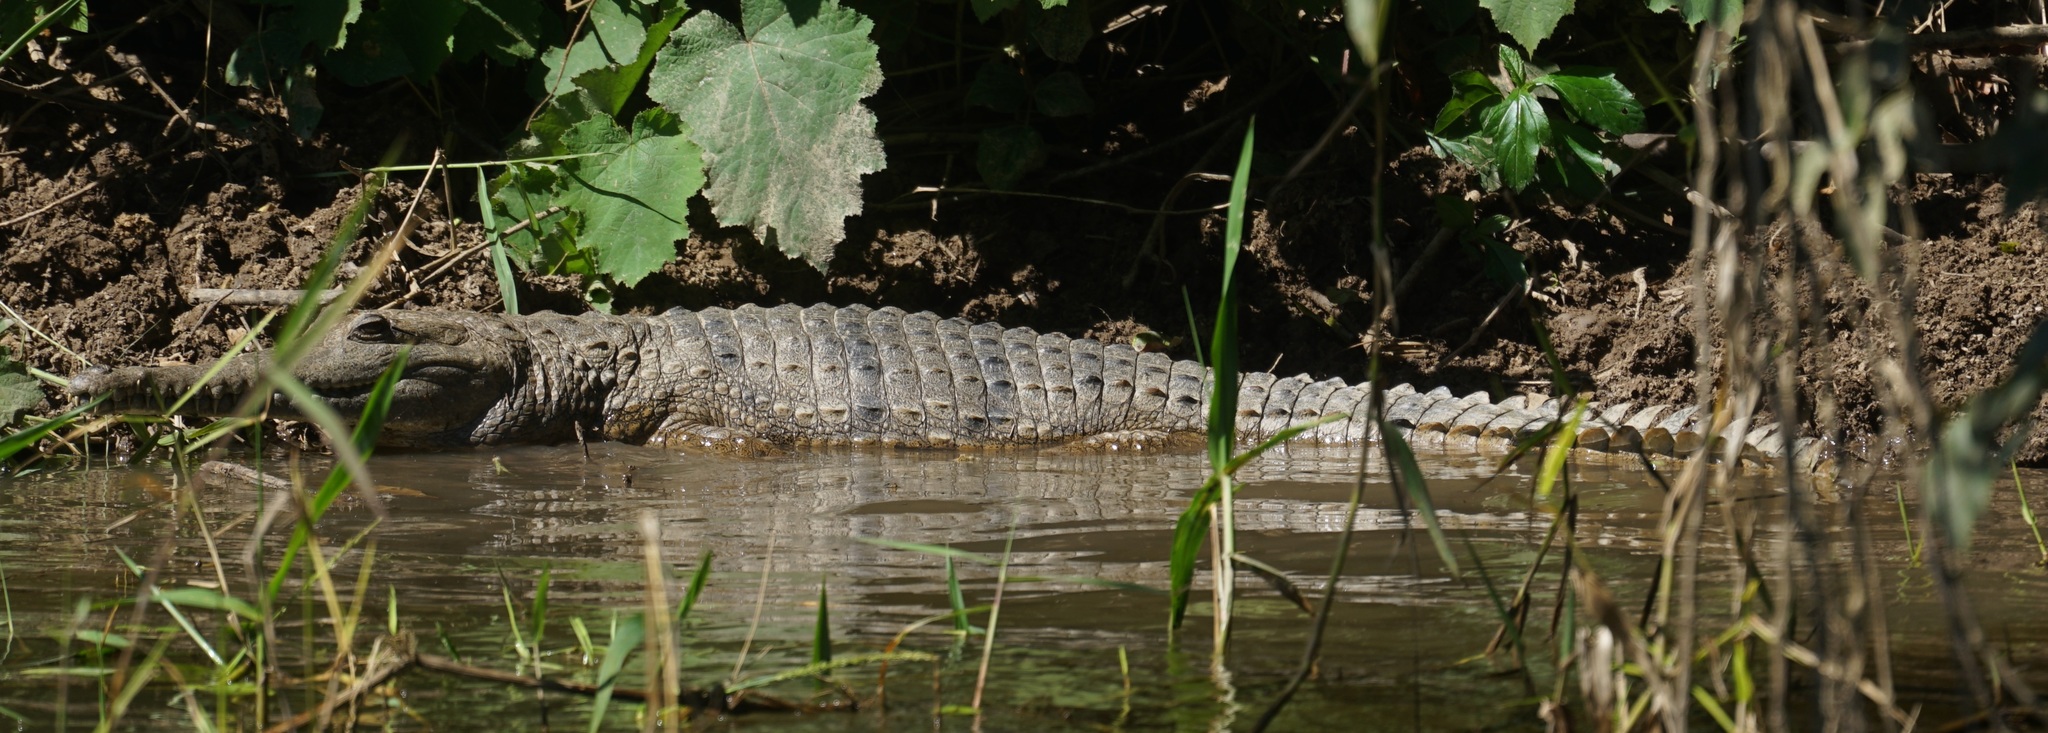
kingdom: Animalia
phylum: Chordata
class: Crocodylia
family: Crocodylidae
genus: Crocodylus
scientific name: Crocodylus johnsoni
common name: Freshwater crocodile
